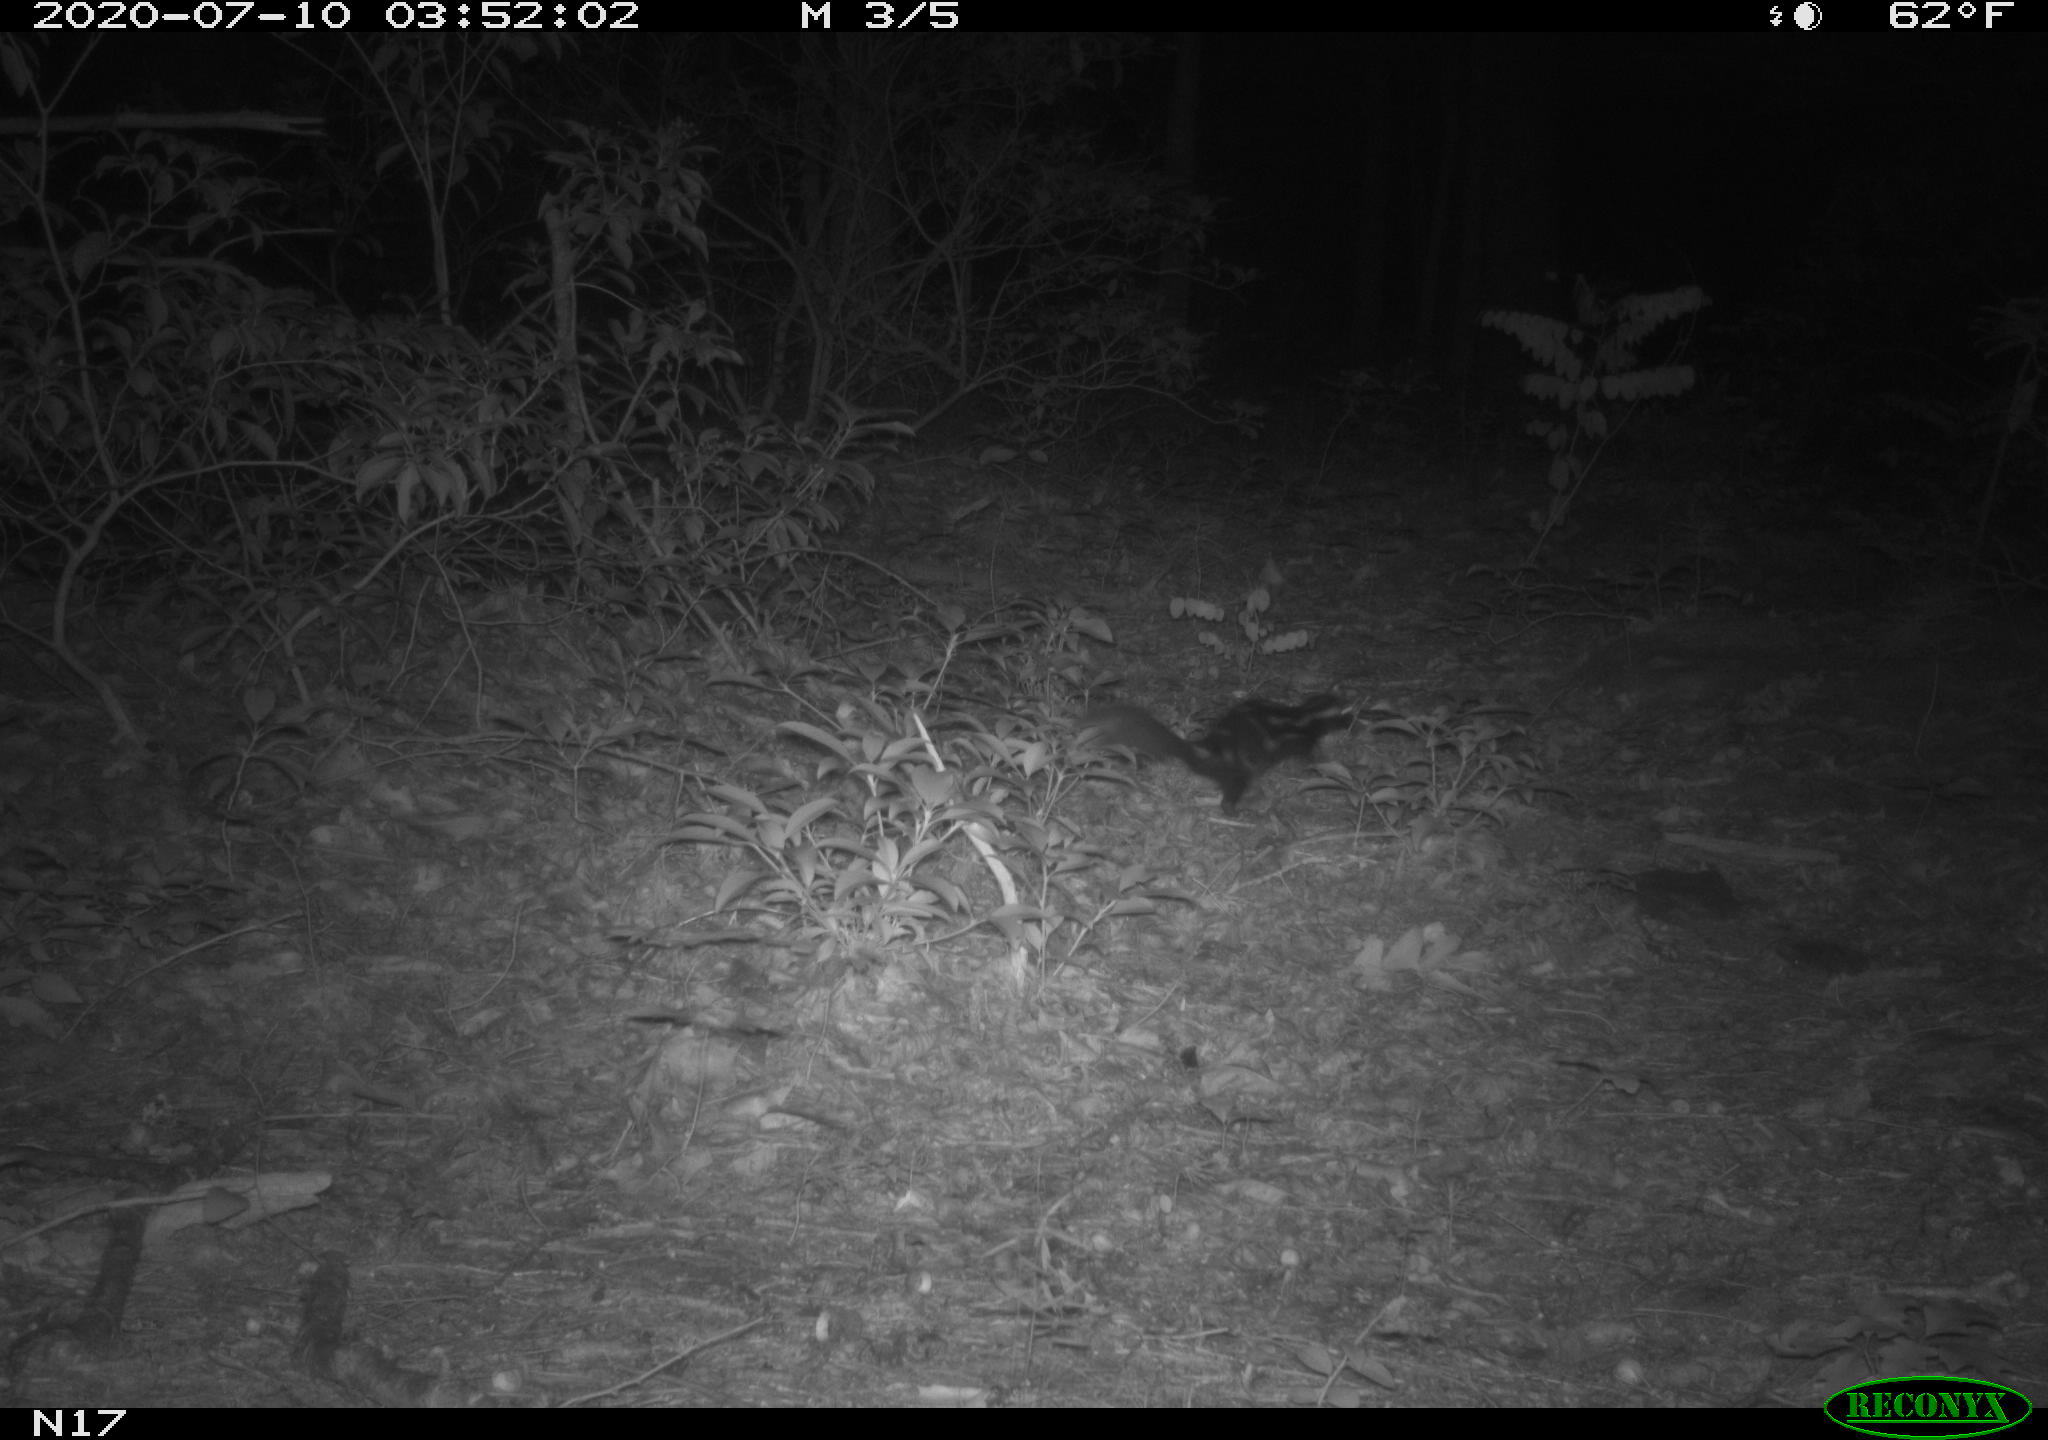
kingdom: Animalia
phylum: Chordata
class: Mammalia
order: Carnivora
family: Mephitidae
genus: Spilogale
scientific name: Spilogale putorius
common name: Eastern spotted skunk
